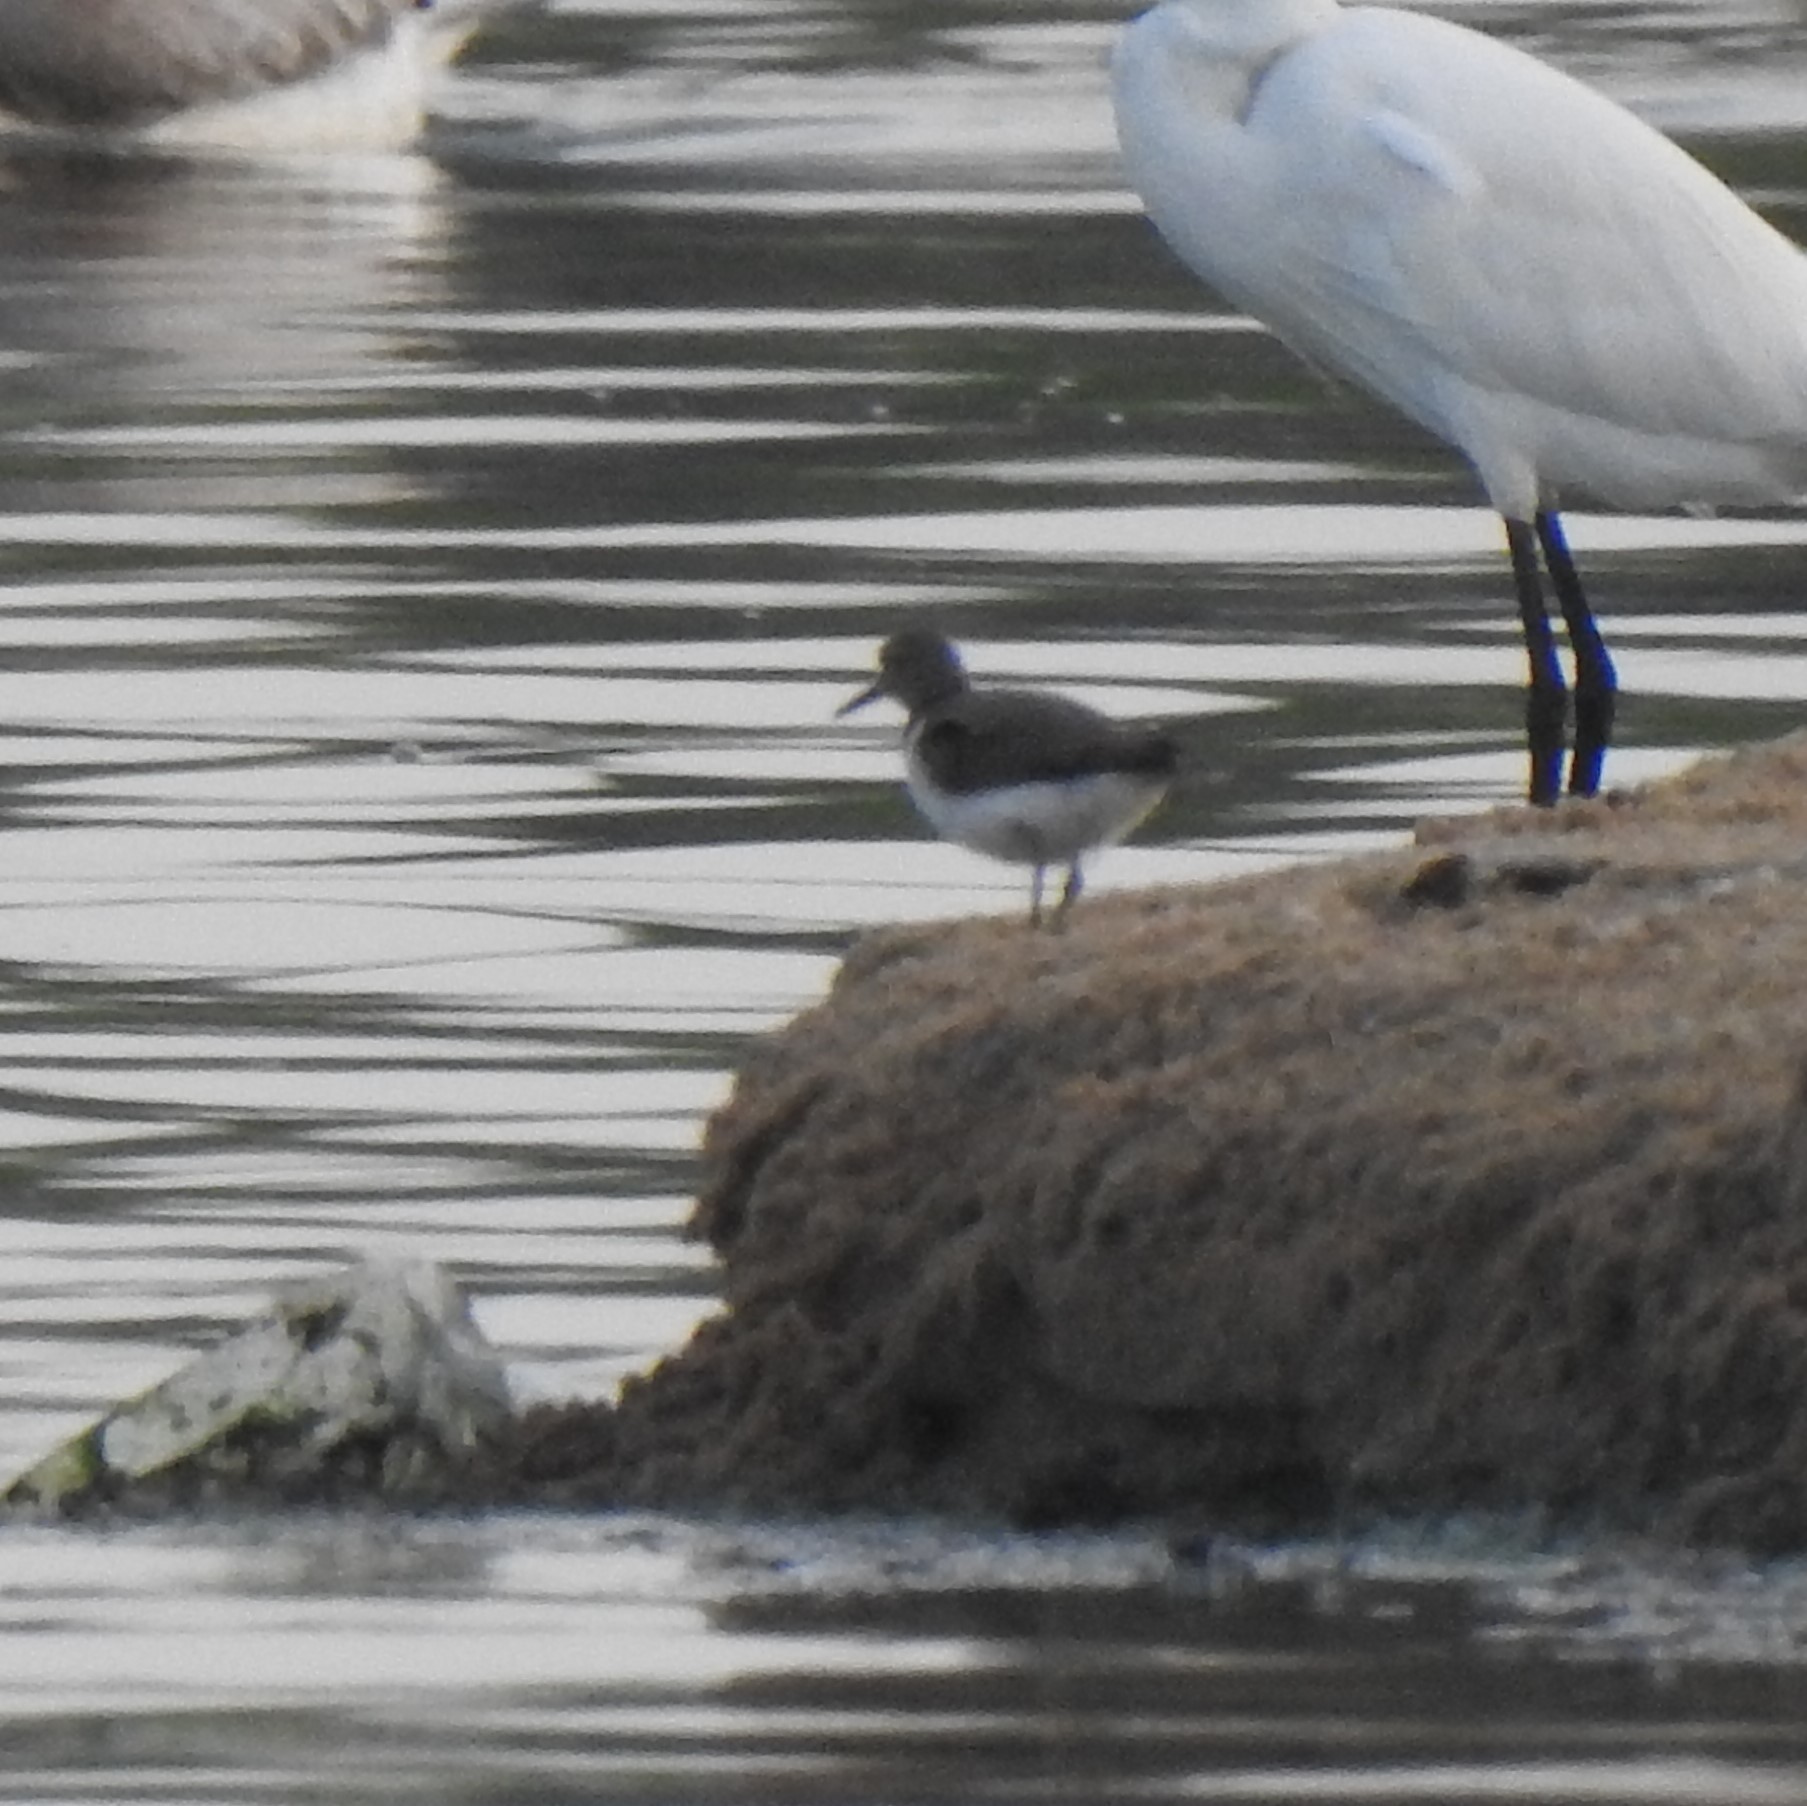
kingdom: Animalia
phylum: Chordata
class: Aves
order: Charadriiformes
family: Scolopacidae
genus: Actitis
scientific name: Actitis hypoleucos
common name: Common sandpiper
